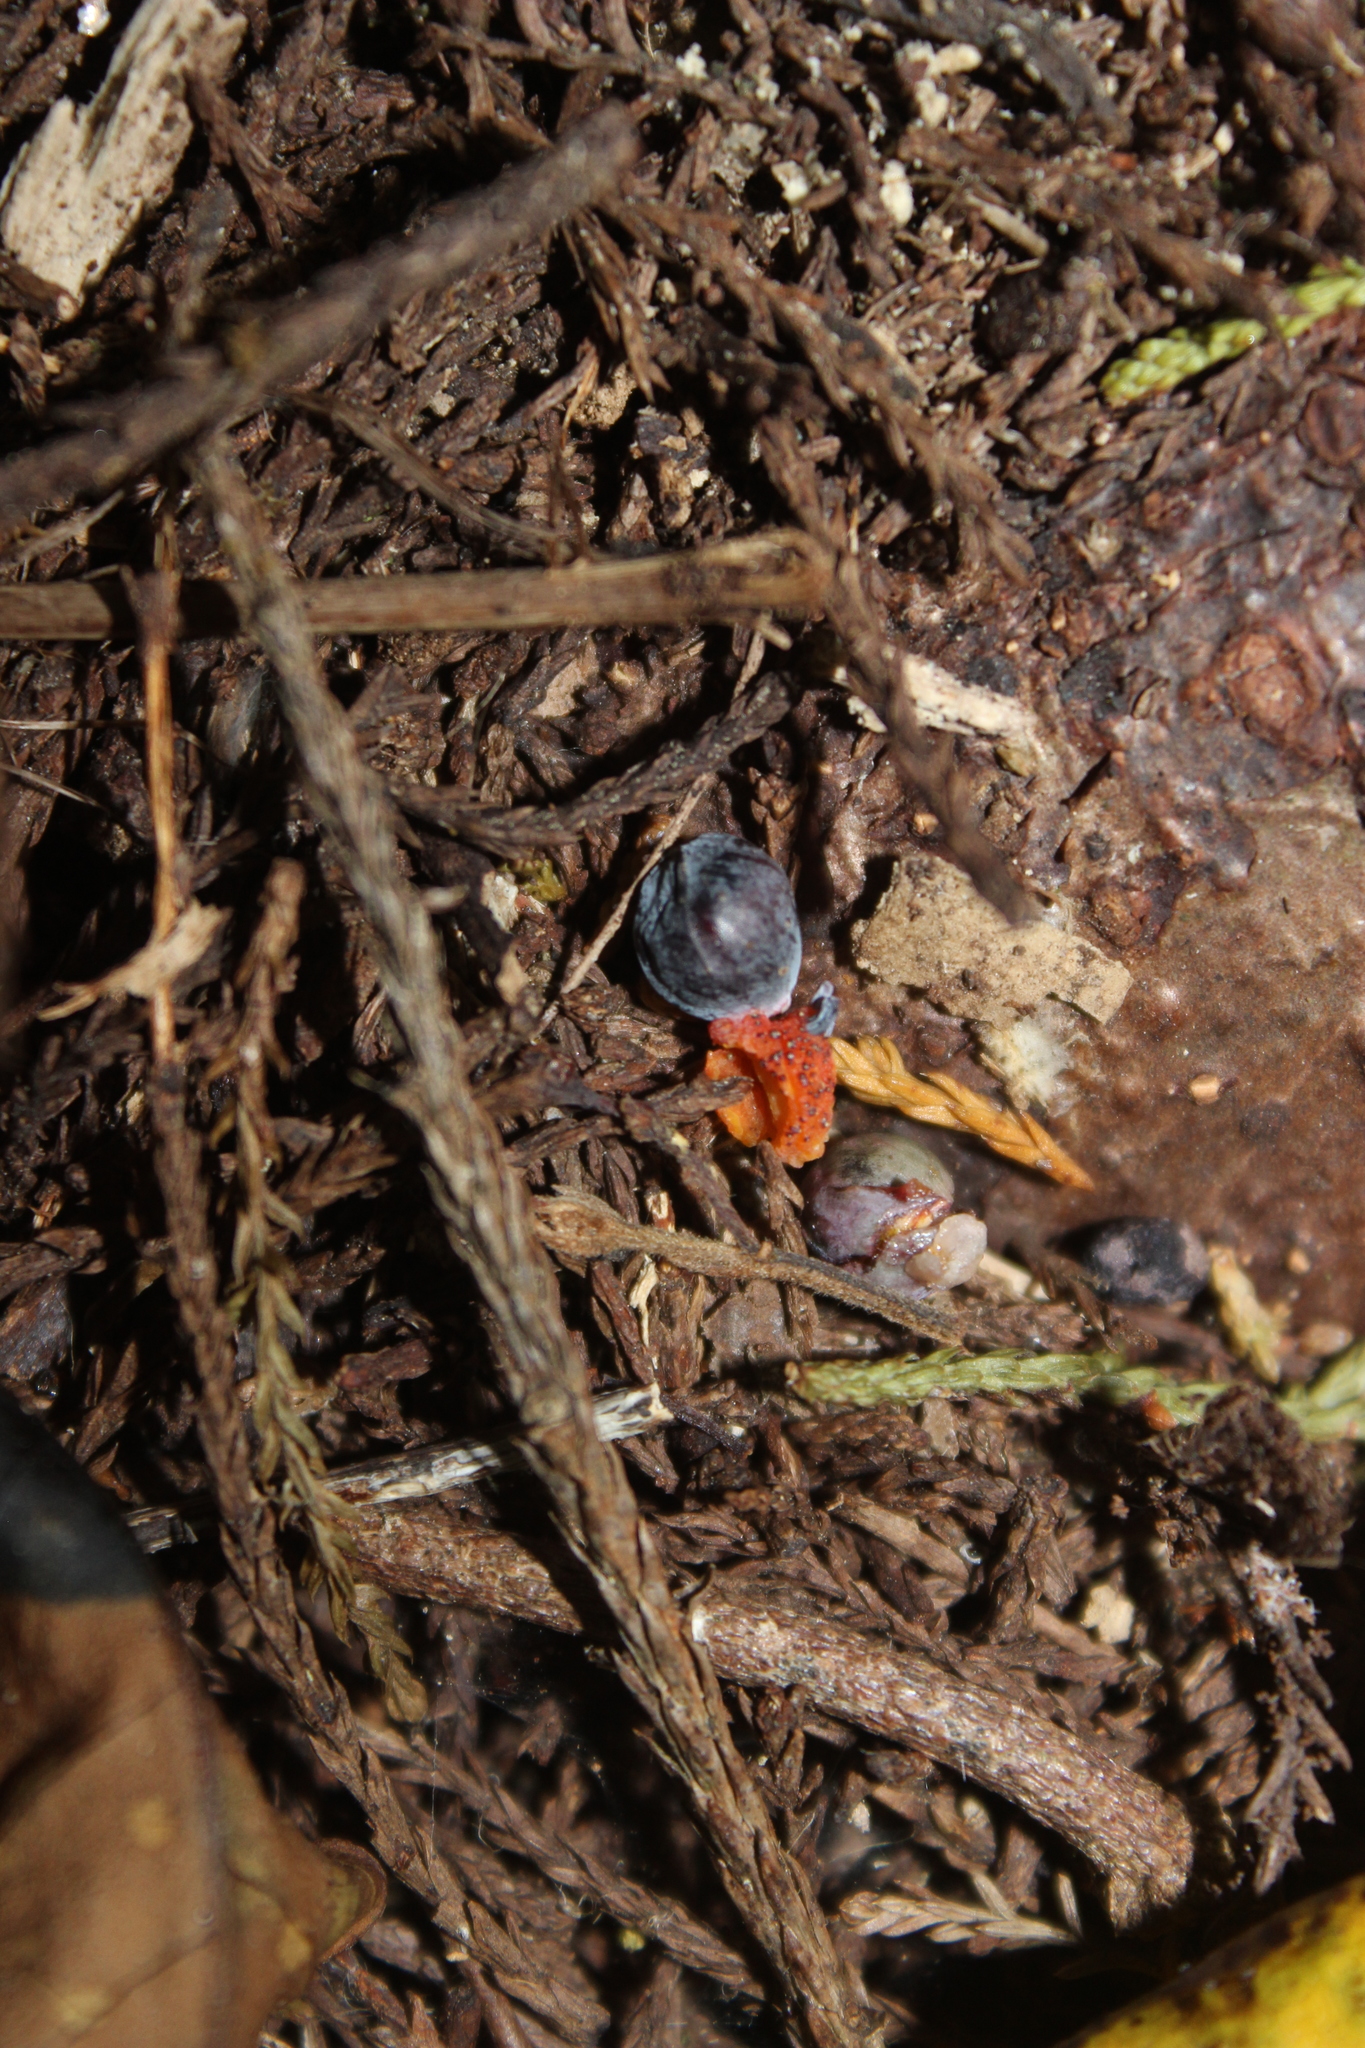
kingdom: Plantae
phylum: Tracheophyta
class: Pinopsida
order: Pinales
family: Podocarpaceae
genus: Dacrycarpus
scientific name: Dacrycarpus dacrydioides
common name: White pine
